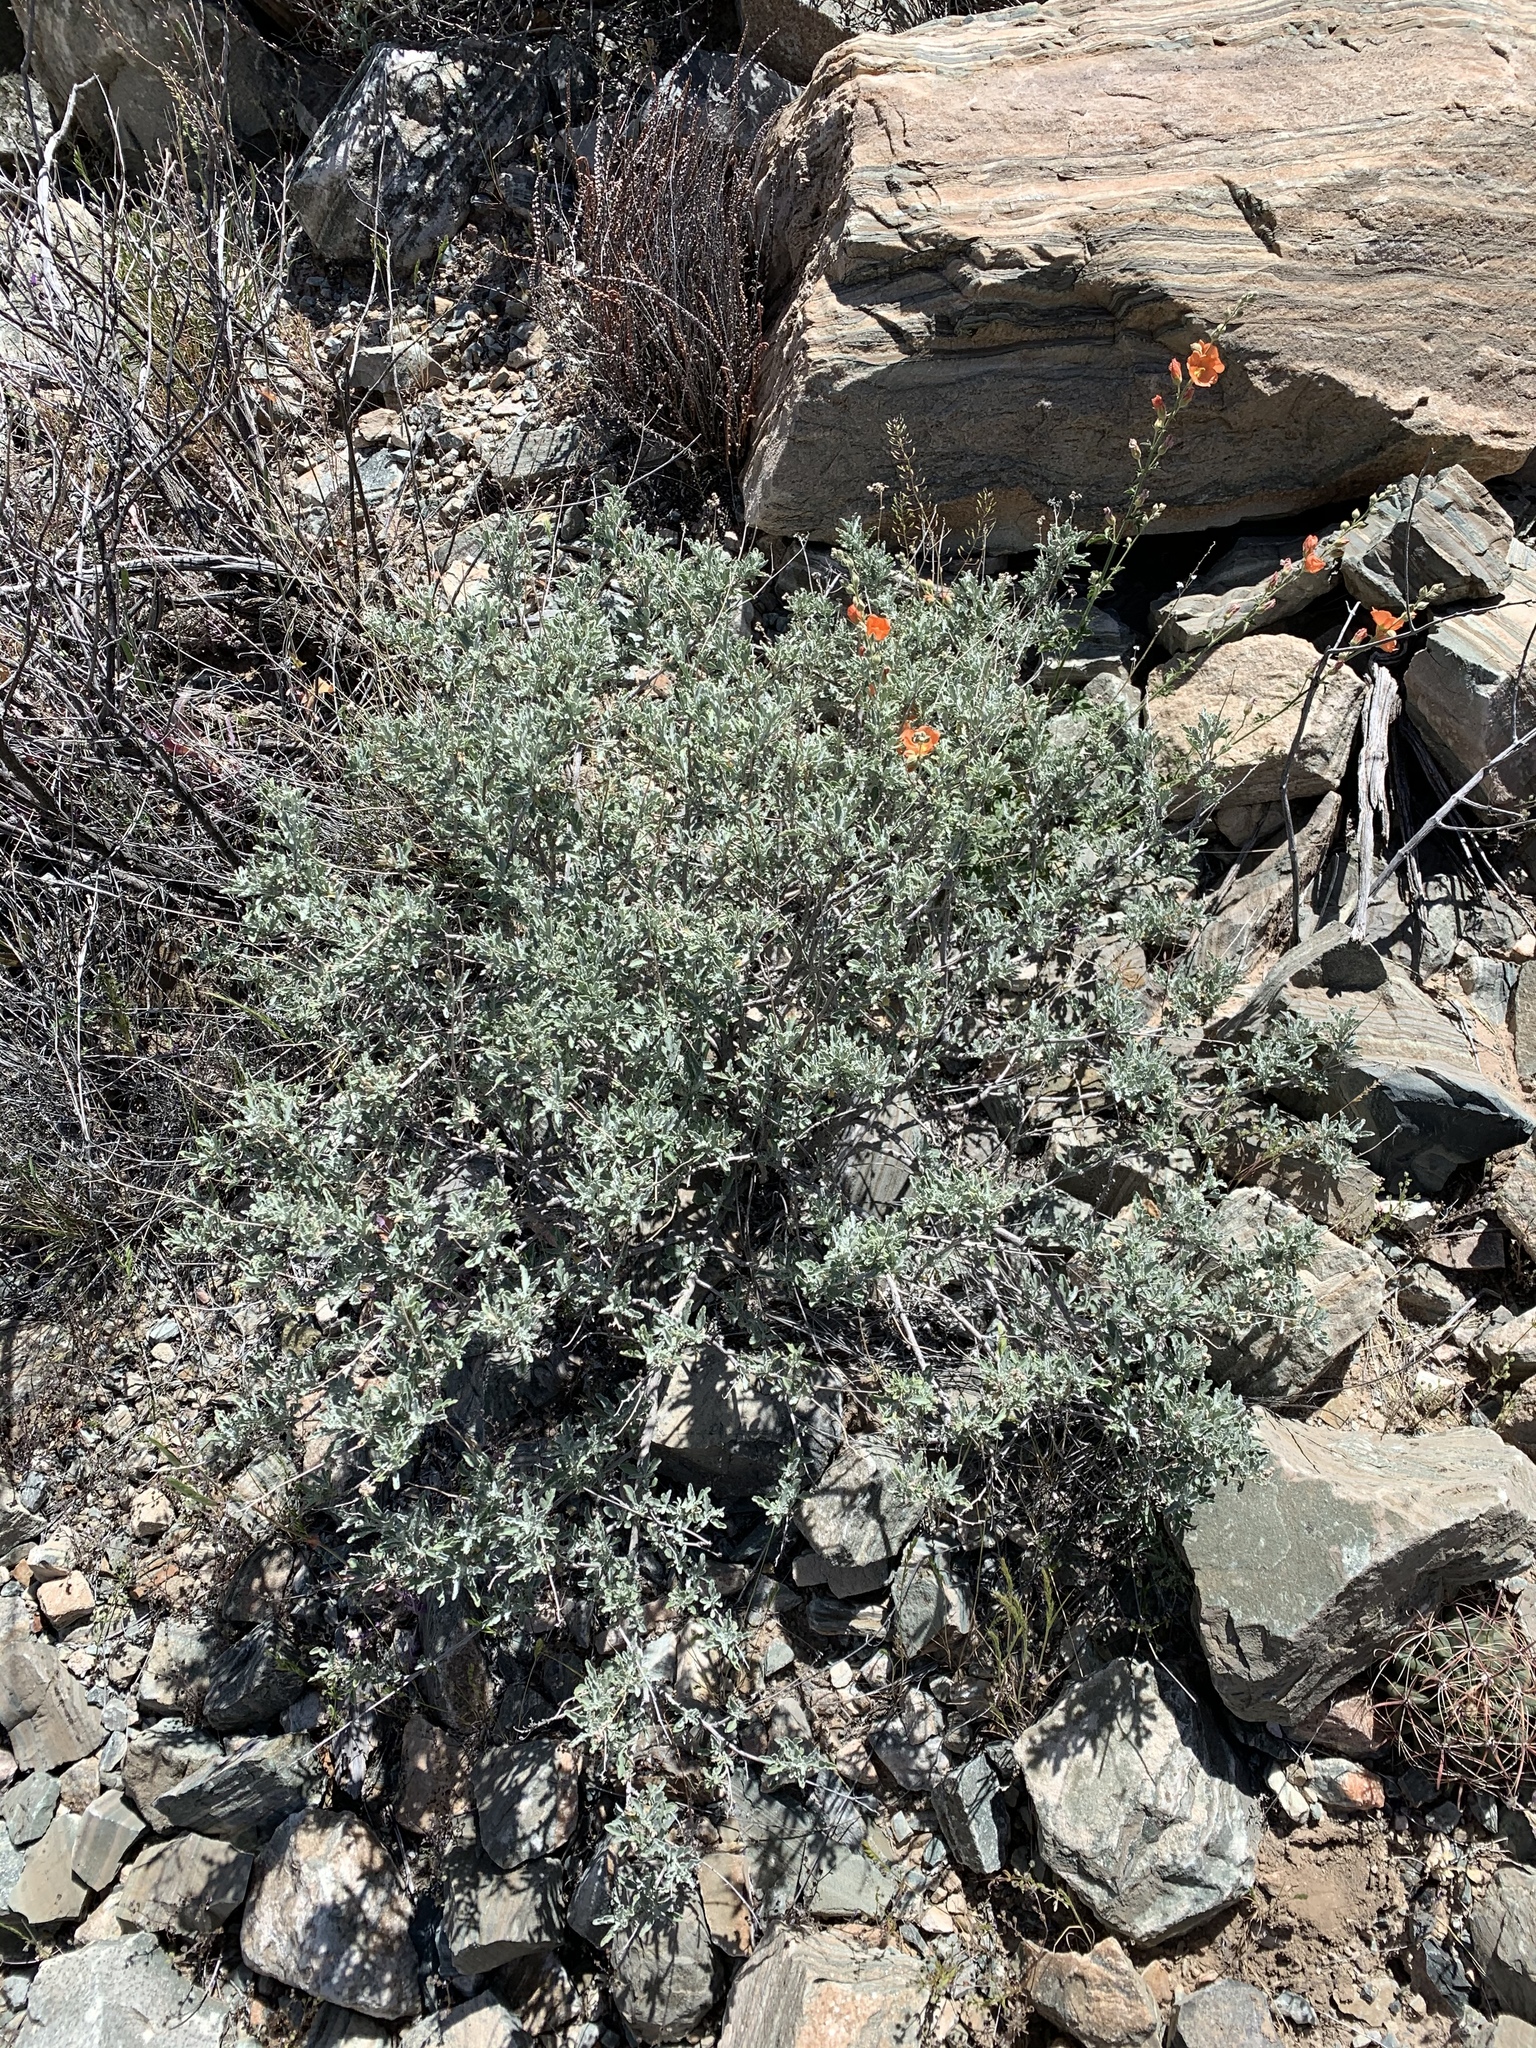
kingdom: Plantae
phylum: Tracheophyta
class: Magnoliopsida
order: Asterales
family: Asteraceae
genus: Parthenium
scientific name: Parthenium incanum
